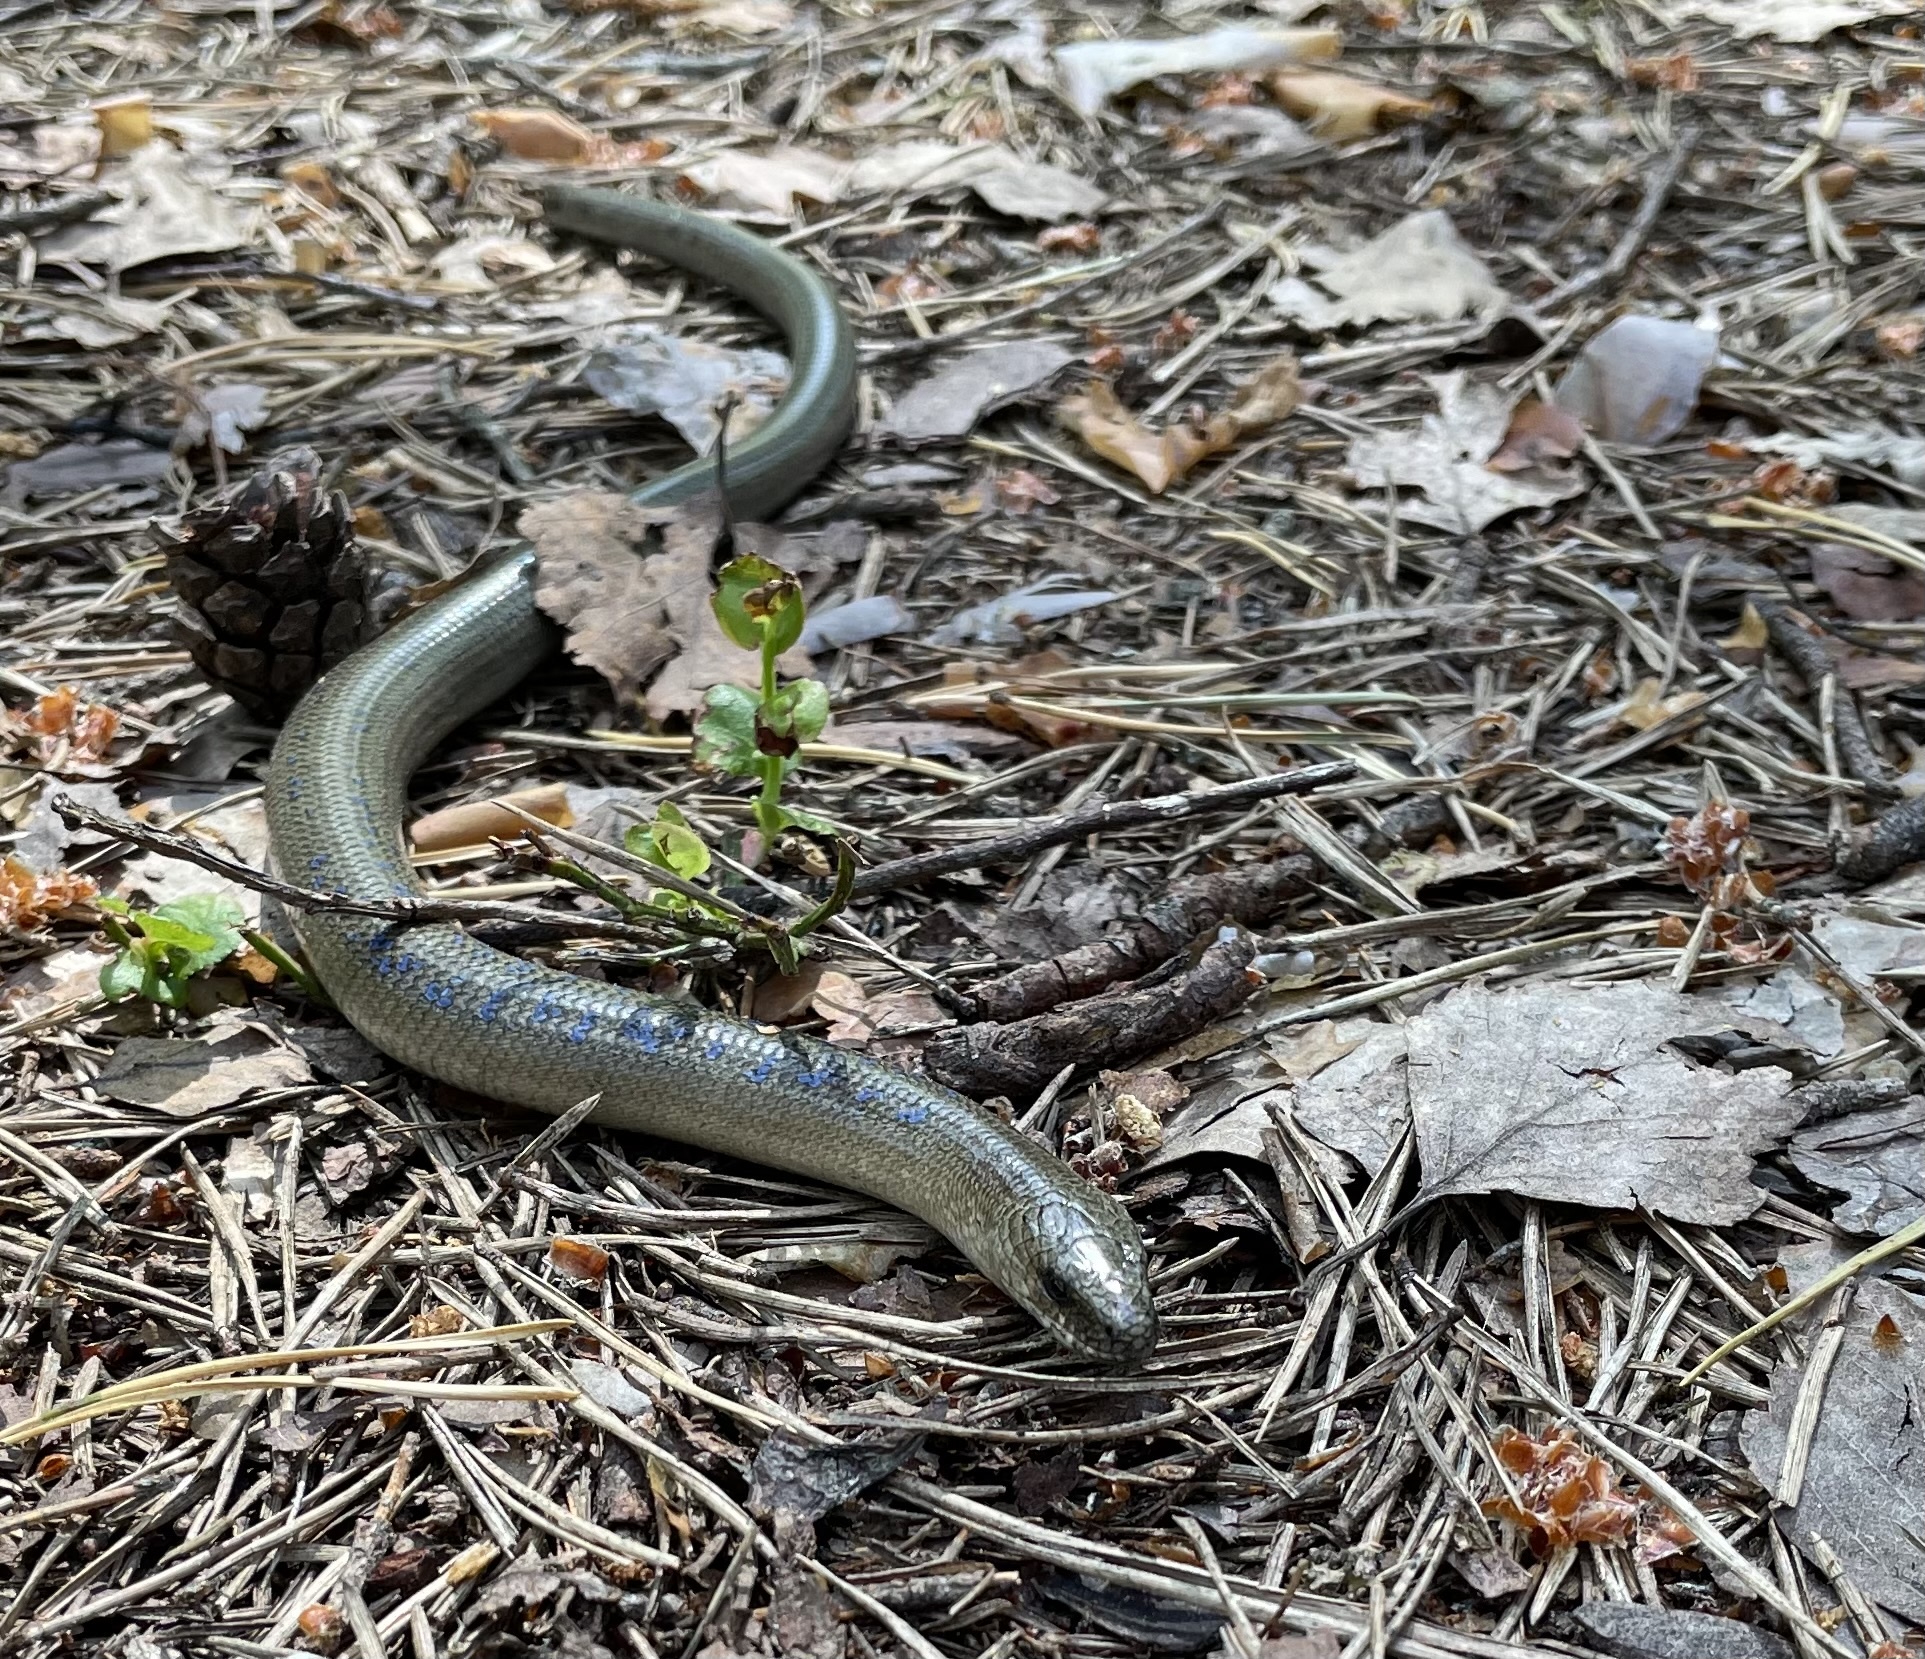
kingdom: Animalia
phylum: Chordata
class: Squamata
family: Anguidae
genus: Anguis
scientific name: Anguis colchica
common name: Slow worm
